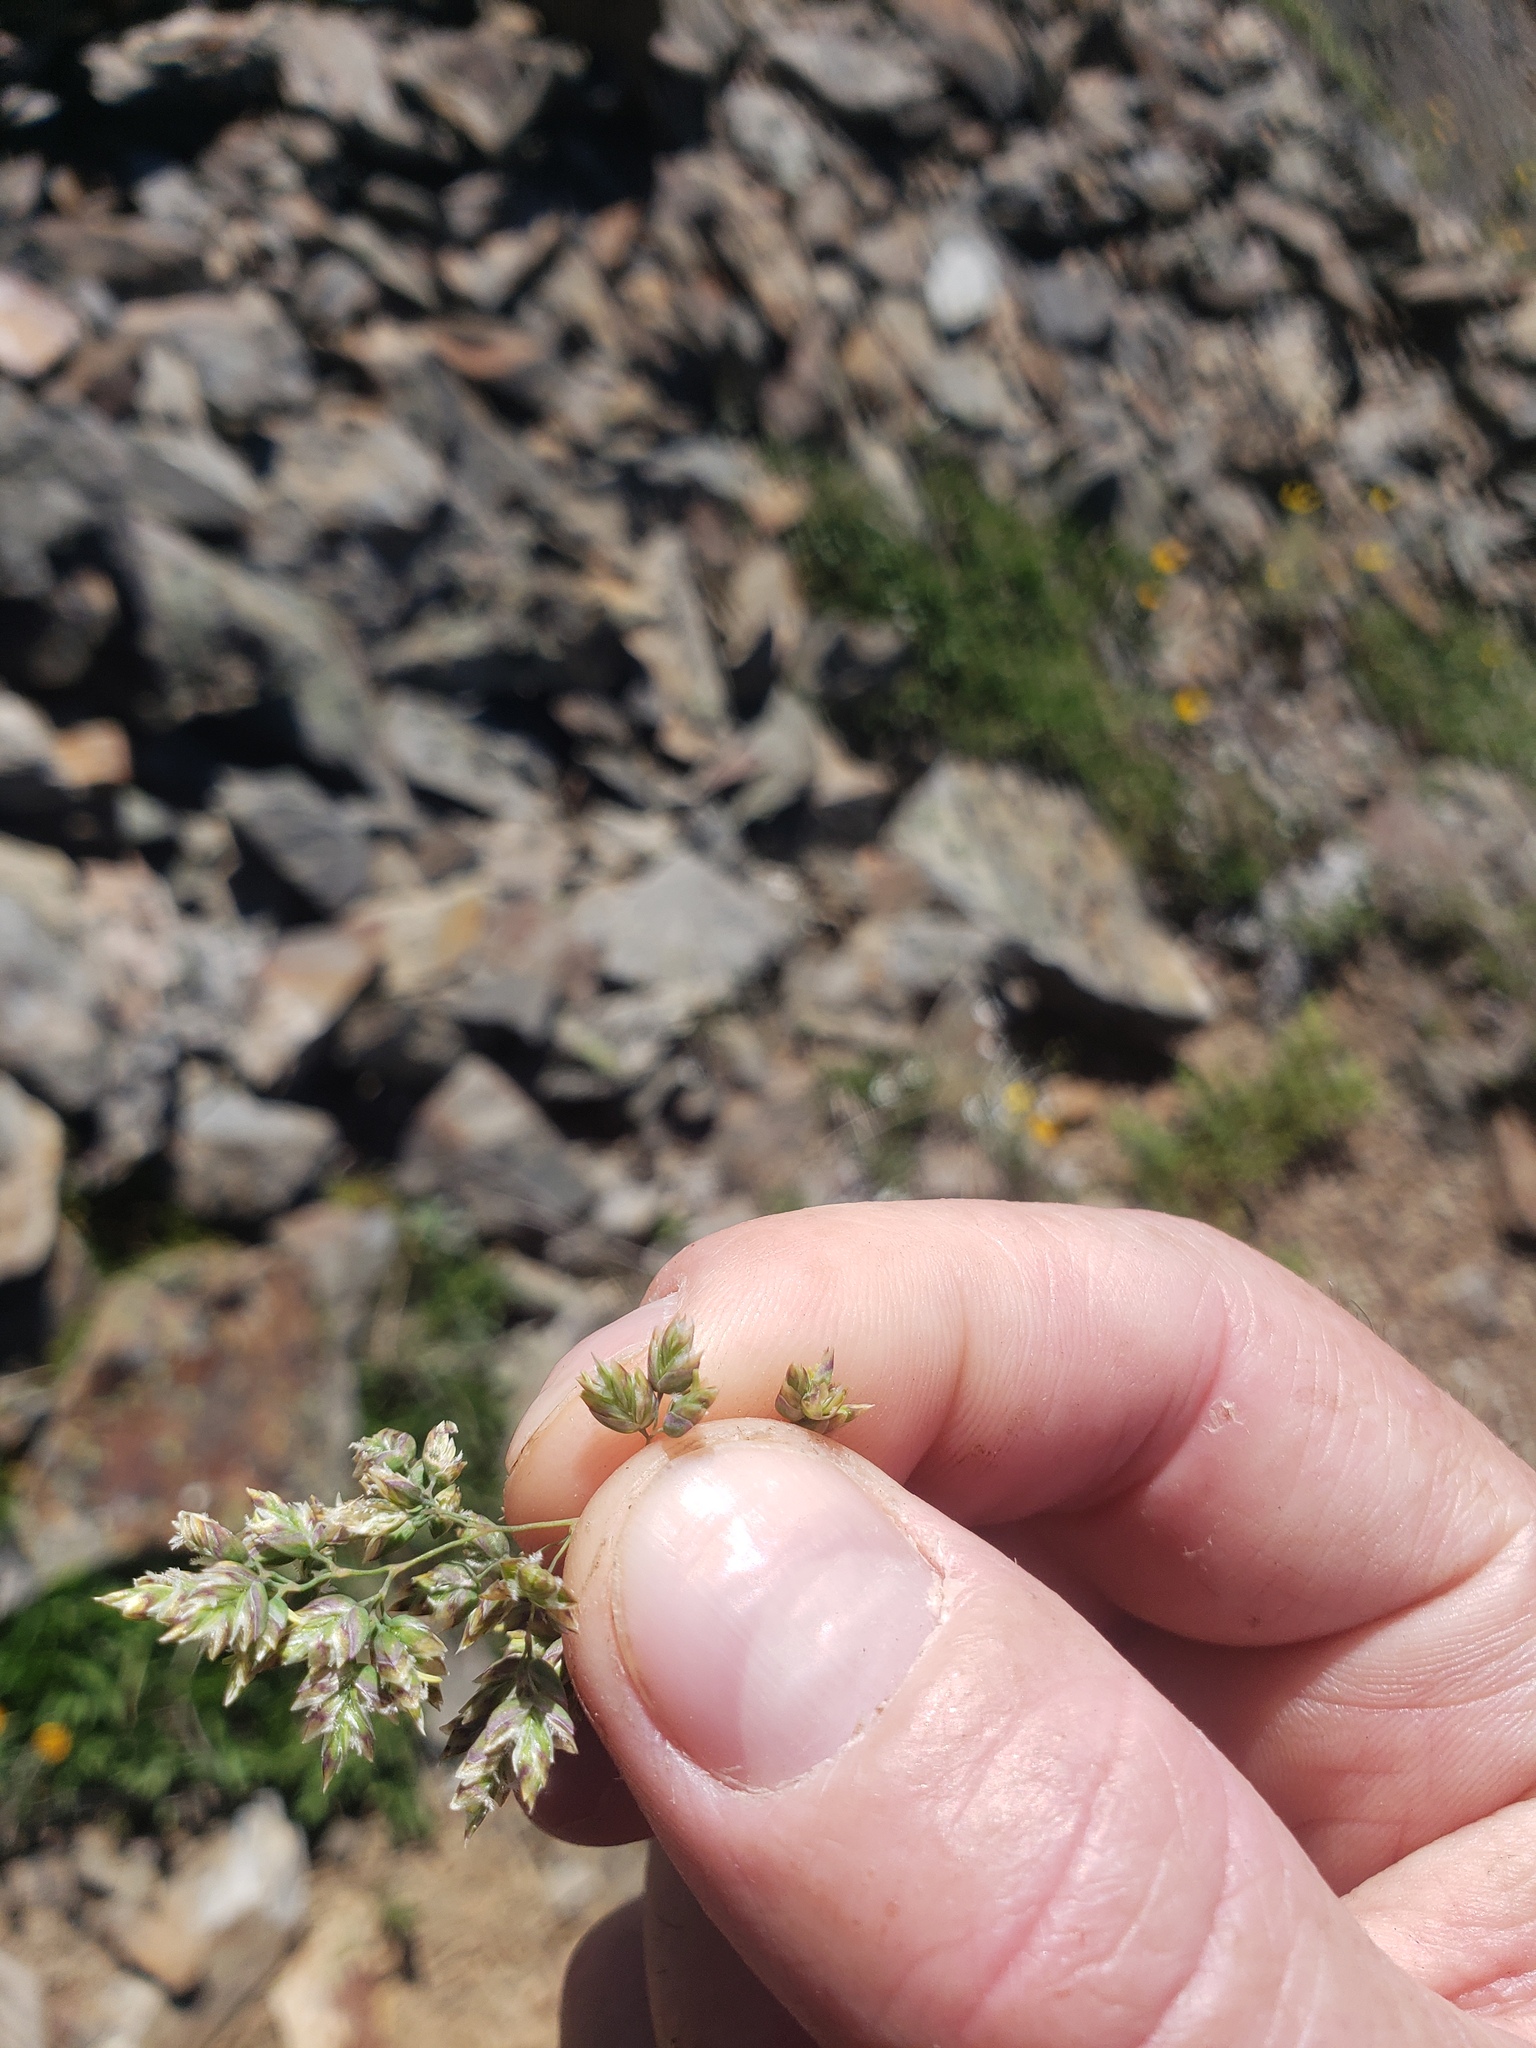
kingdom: Plantae
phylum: Tracheophyta
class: Liliopsida
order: Poales
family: Poaceae
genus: Poa
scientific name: Poa alpina
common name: Alpine bluegrass
